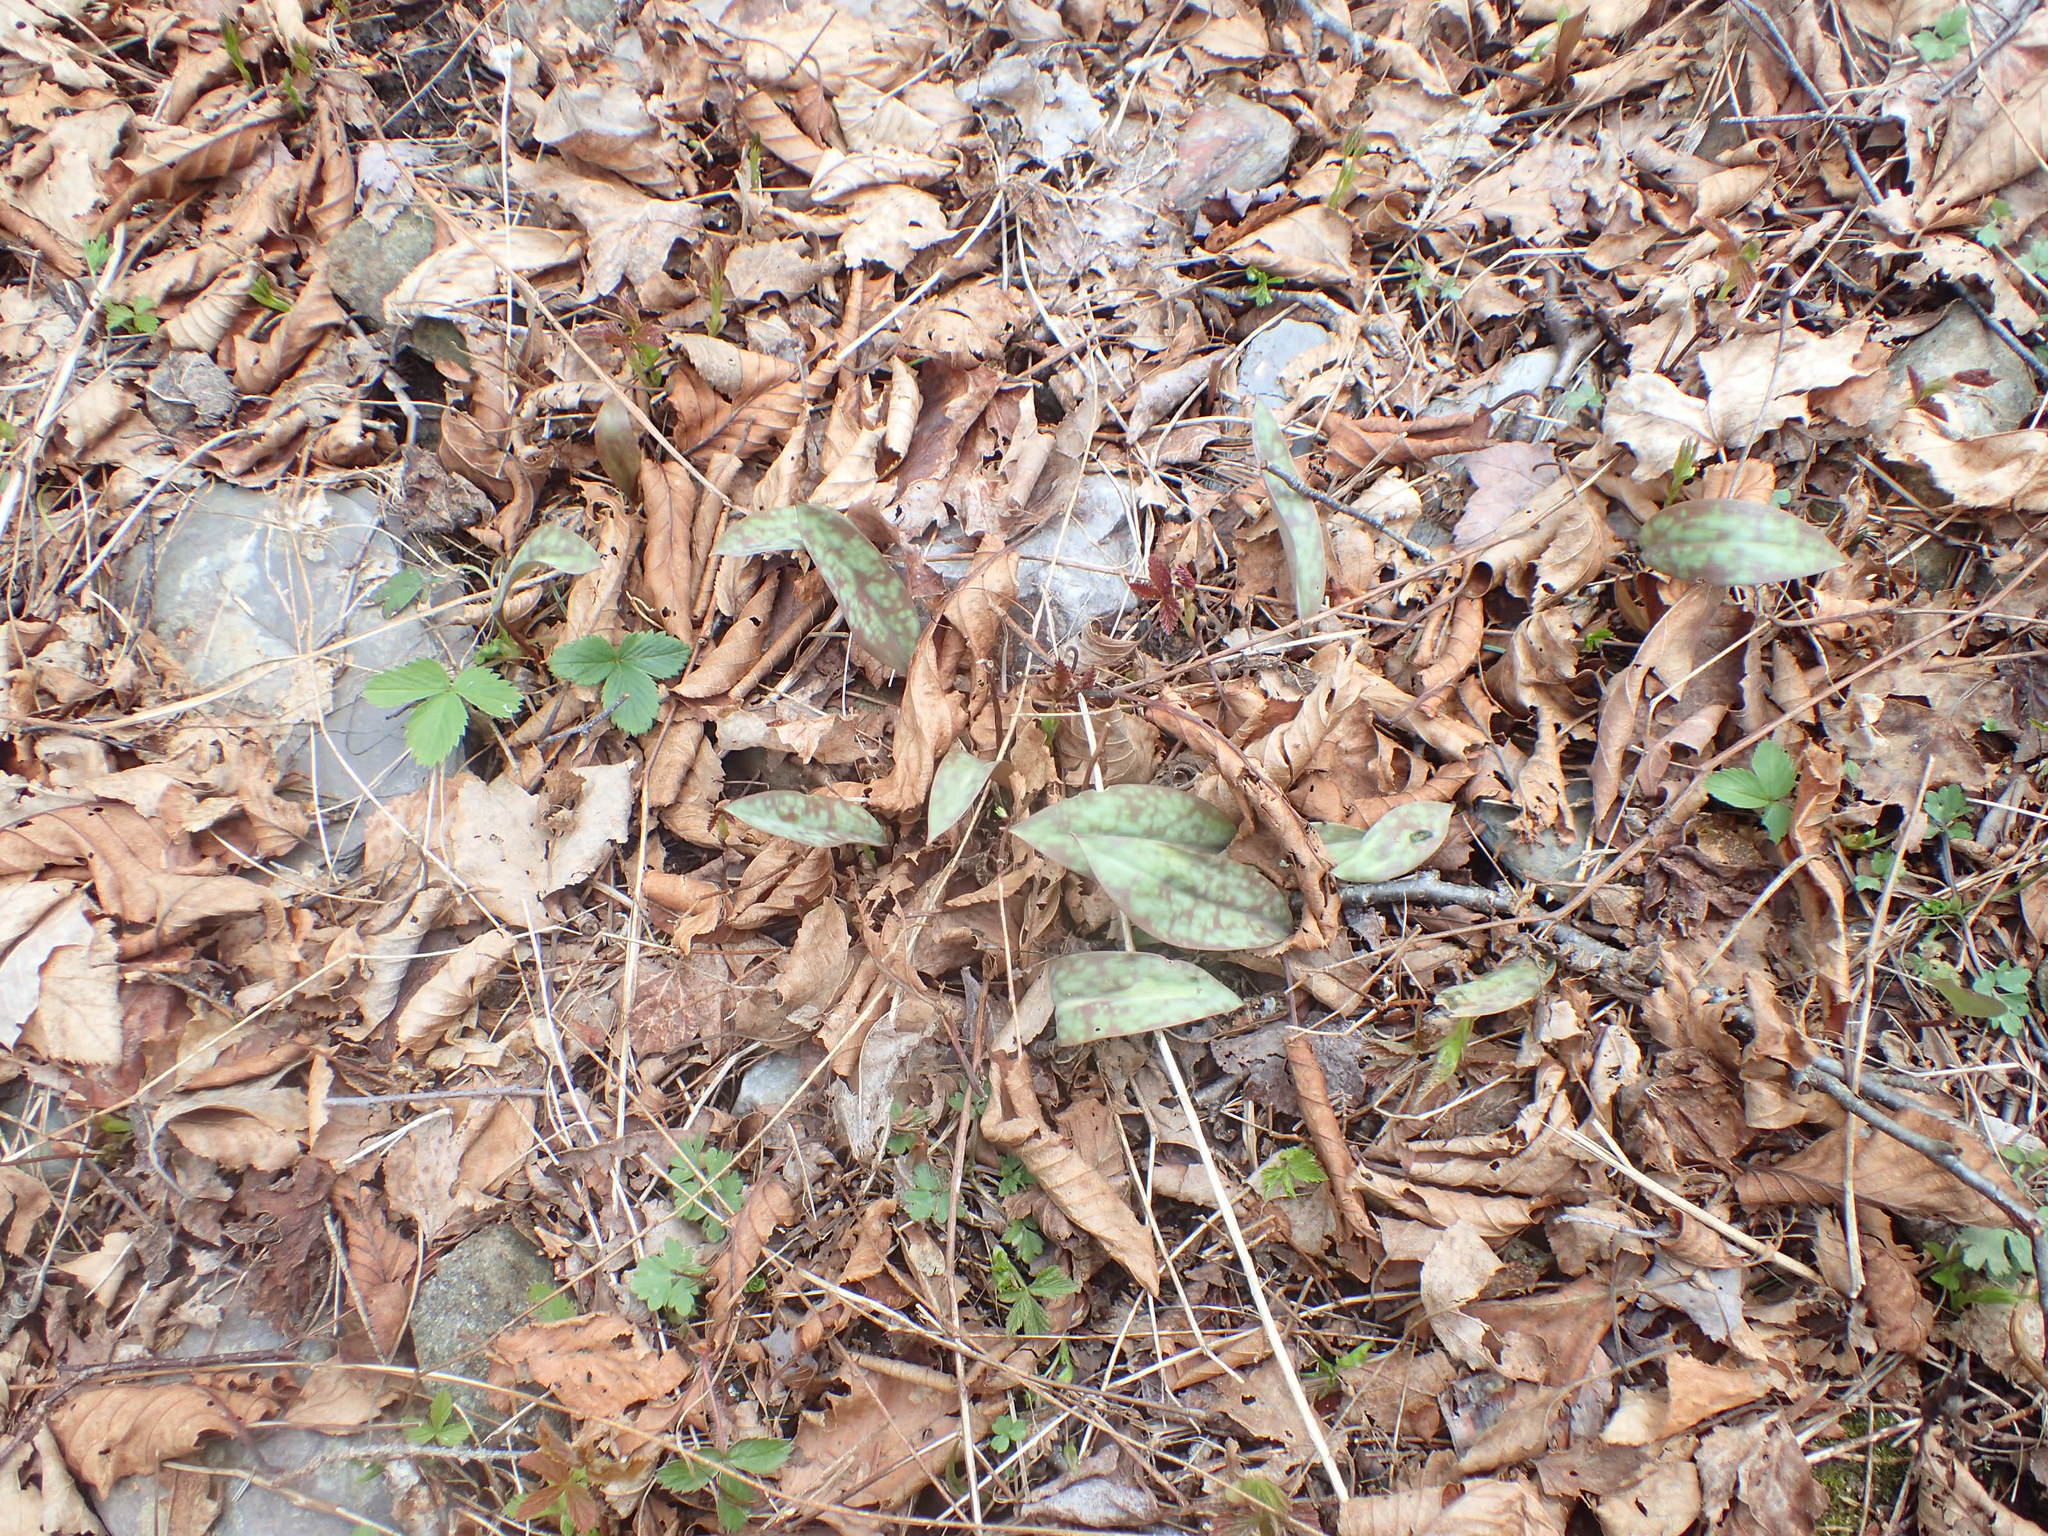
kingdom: Plantae
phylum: Tracheophyta
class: Liliopsida
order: Liliales
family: Liliaceae
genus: Erythronium
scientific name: Erythronium americanum
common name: Yellow adder's-tongue
